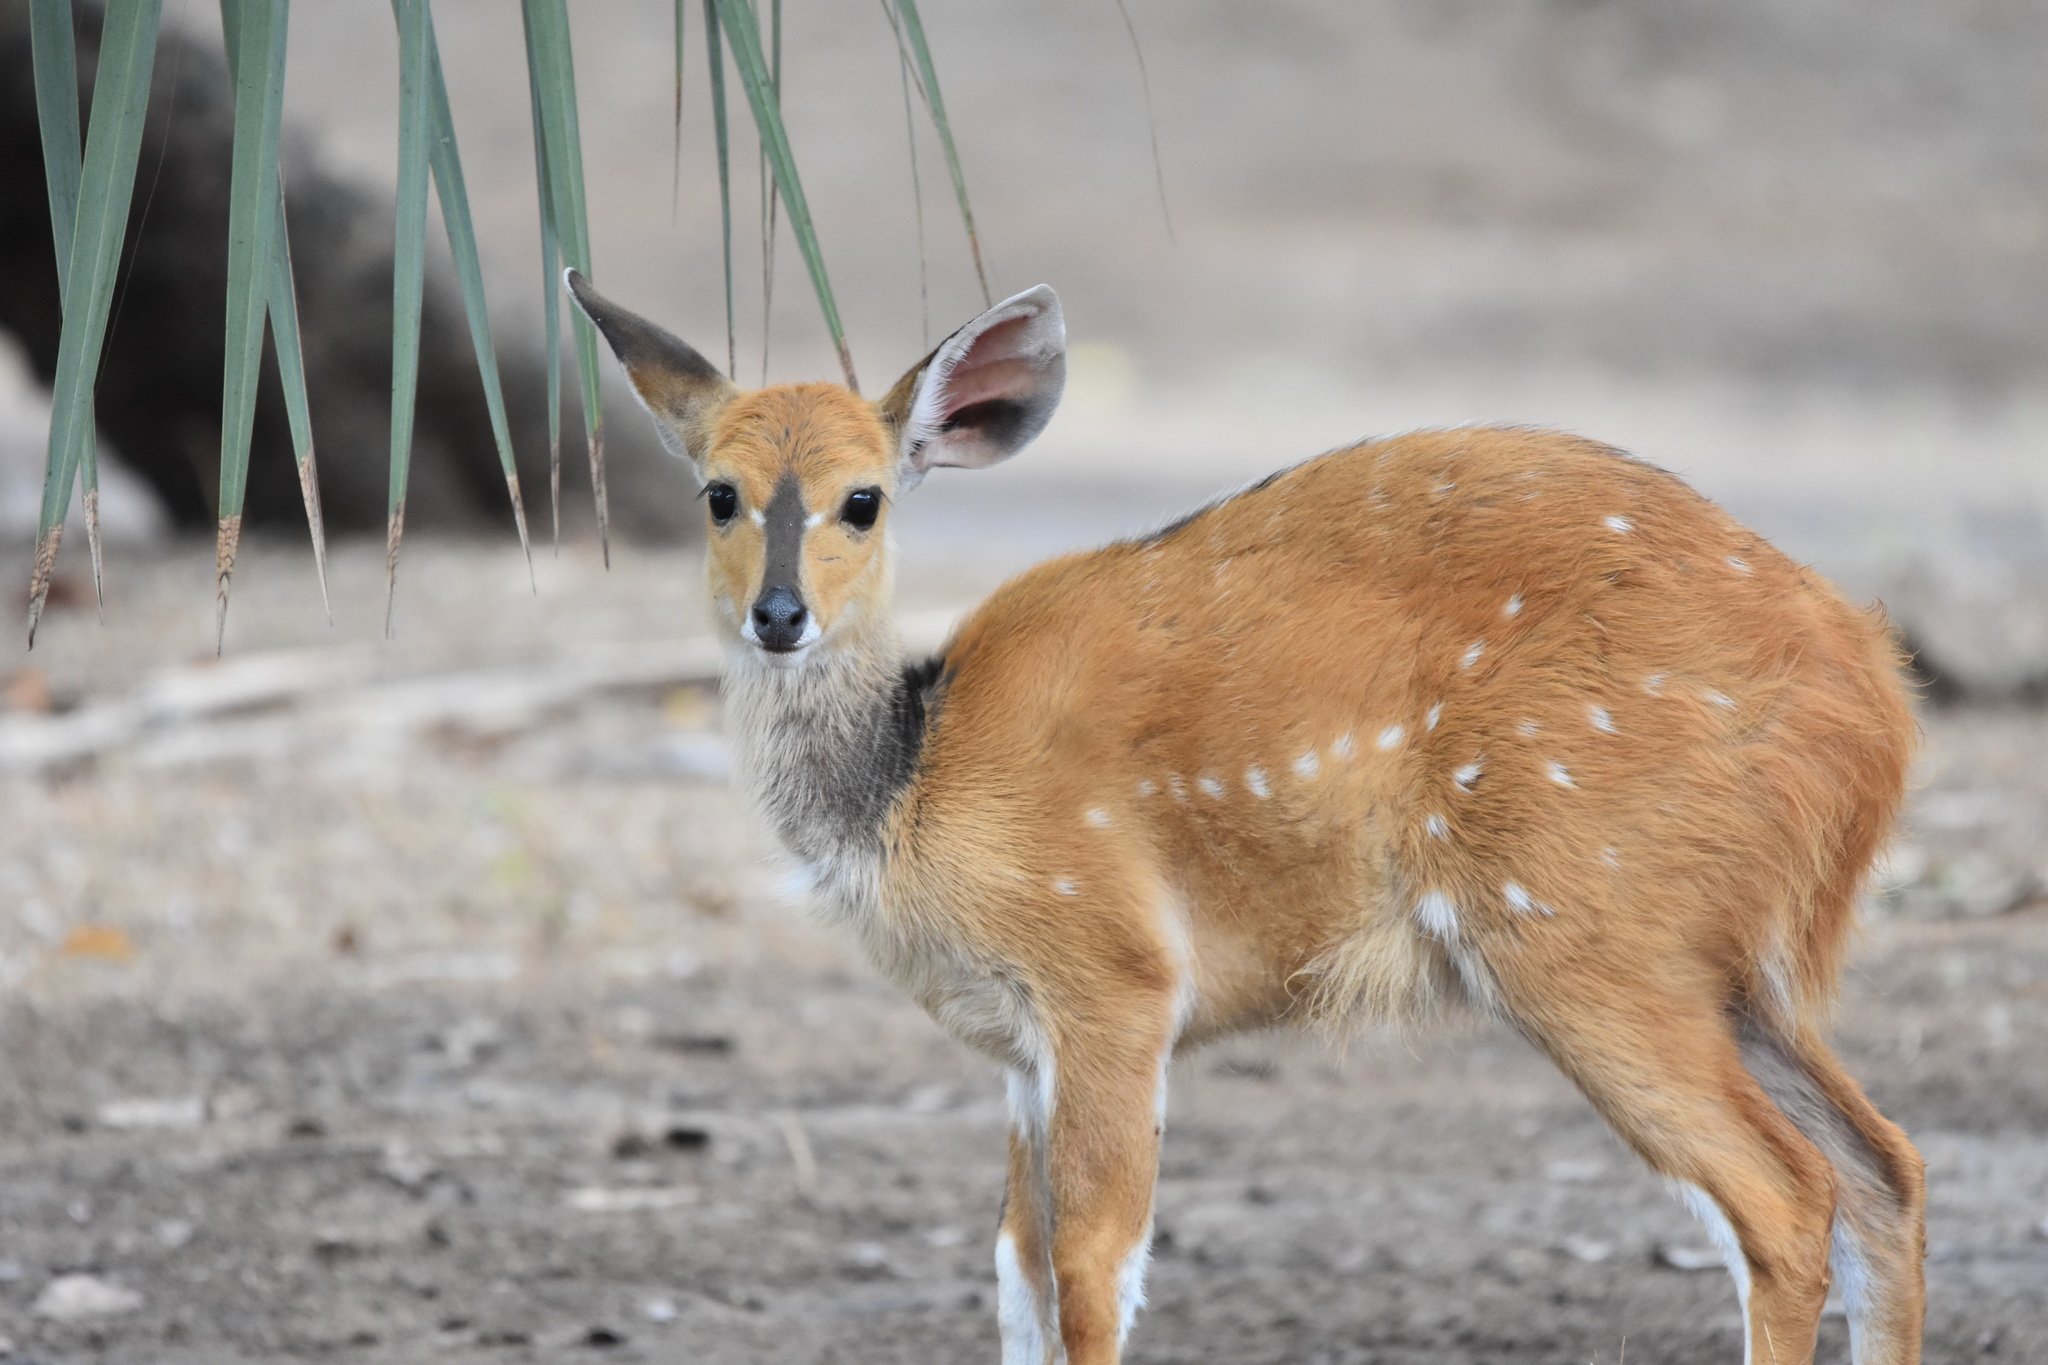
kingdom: Animalia
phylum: Chordata
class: Mammalia
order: Artiodactyla
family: Bovidae
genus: Tragelaphus
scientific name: Tragelaphus scriptus
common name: Bushbuck
